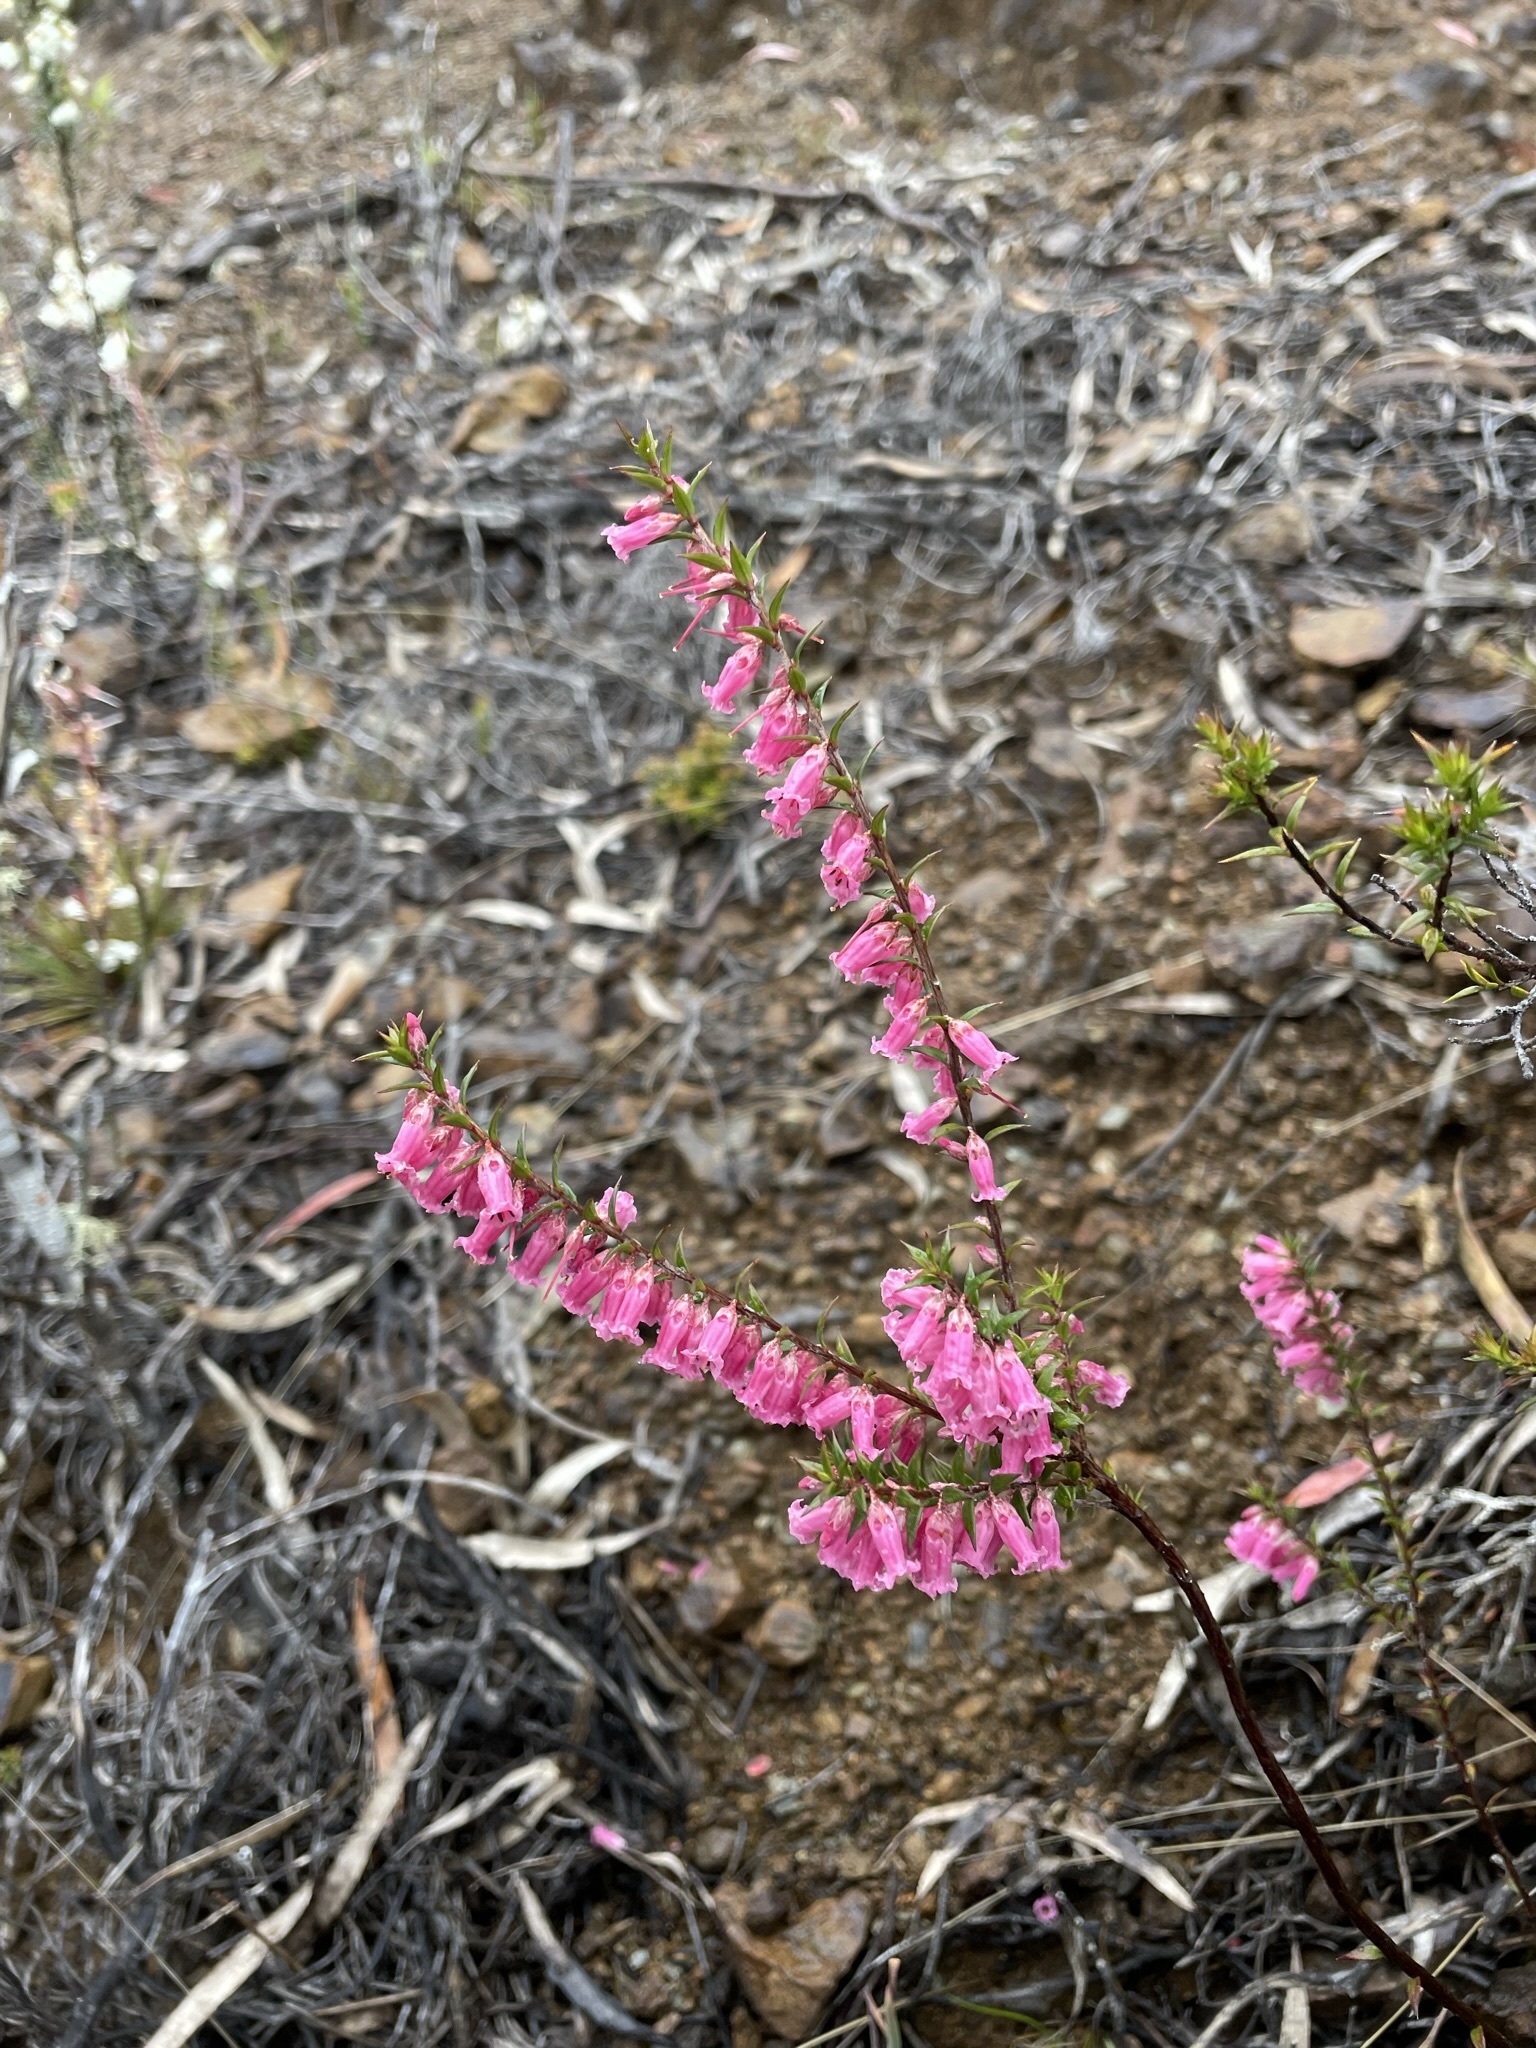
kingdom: Plantae
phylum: Tracheophyta
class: Magnoliopsida
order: Ericales
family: Ericaceae
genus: Epacris
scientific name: Epacris impressa
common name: Common-heath
